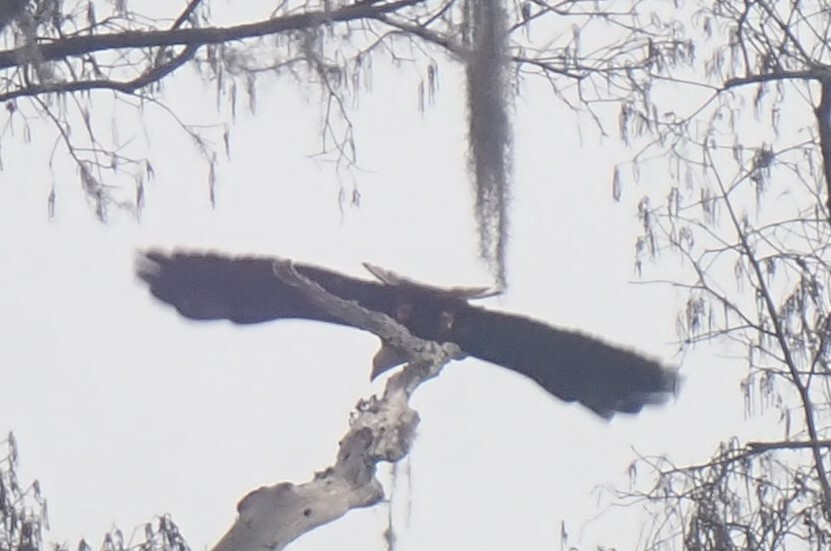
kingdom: Animalia
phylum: Chordata
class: Aves
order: Accipitriformes
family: Accipitridae
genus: Haliaeetus
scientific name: Haliaeetus leucocephalus
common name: Bald eagle
